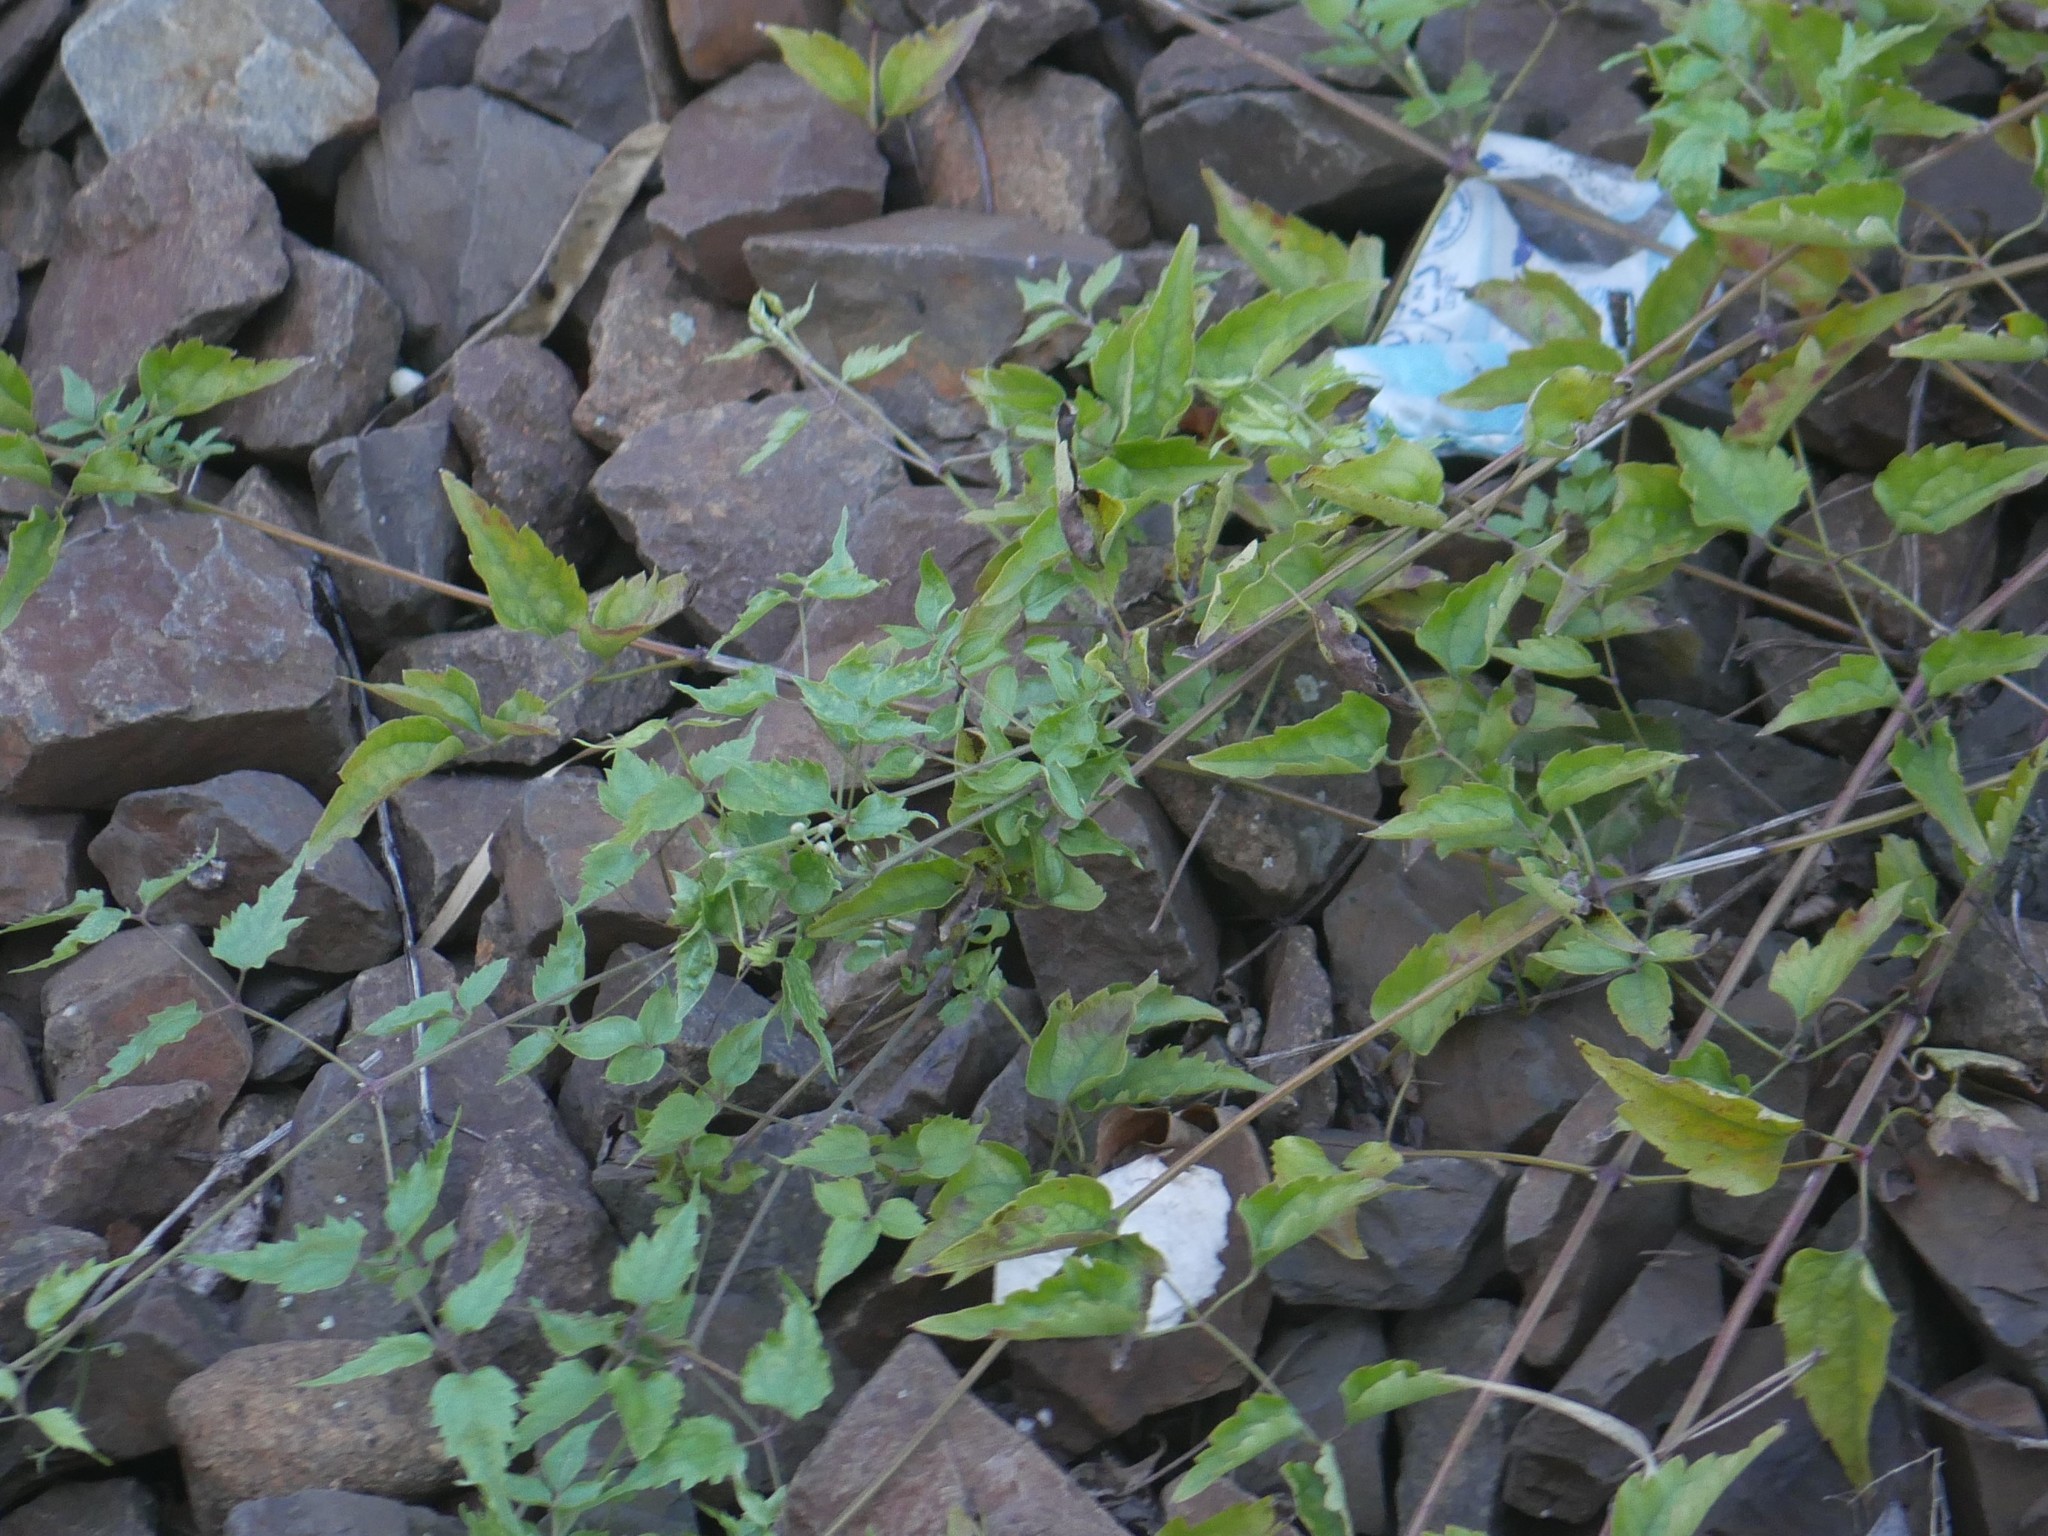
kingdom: Plantae
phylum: Tracheophyta
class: Magnoliopsida
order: Ranunculales
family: Ranunculaceae
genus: Clematis
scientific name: Clematis vitalba
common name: Evergreen clematis
